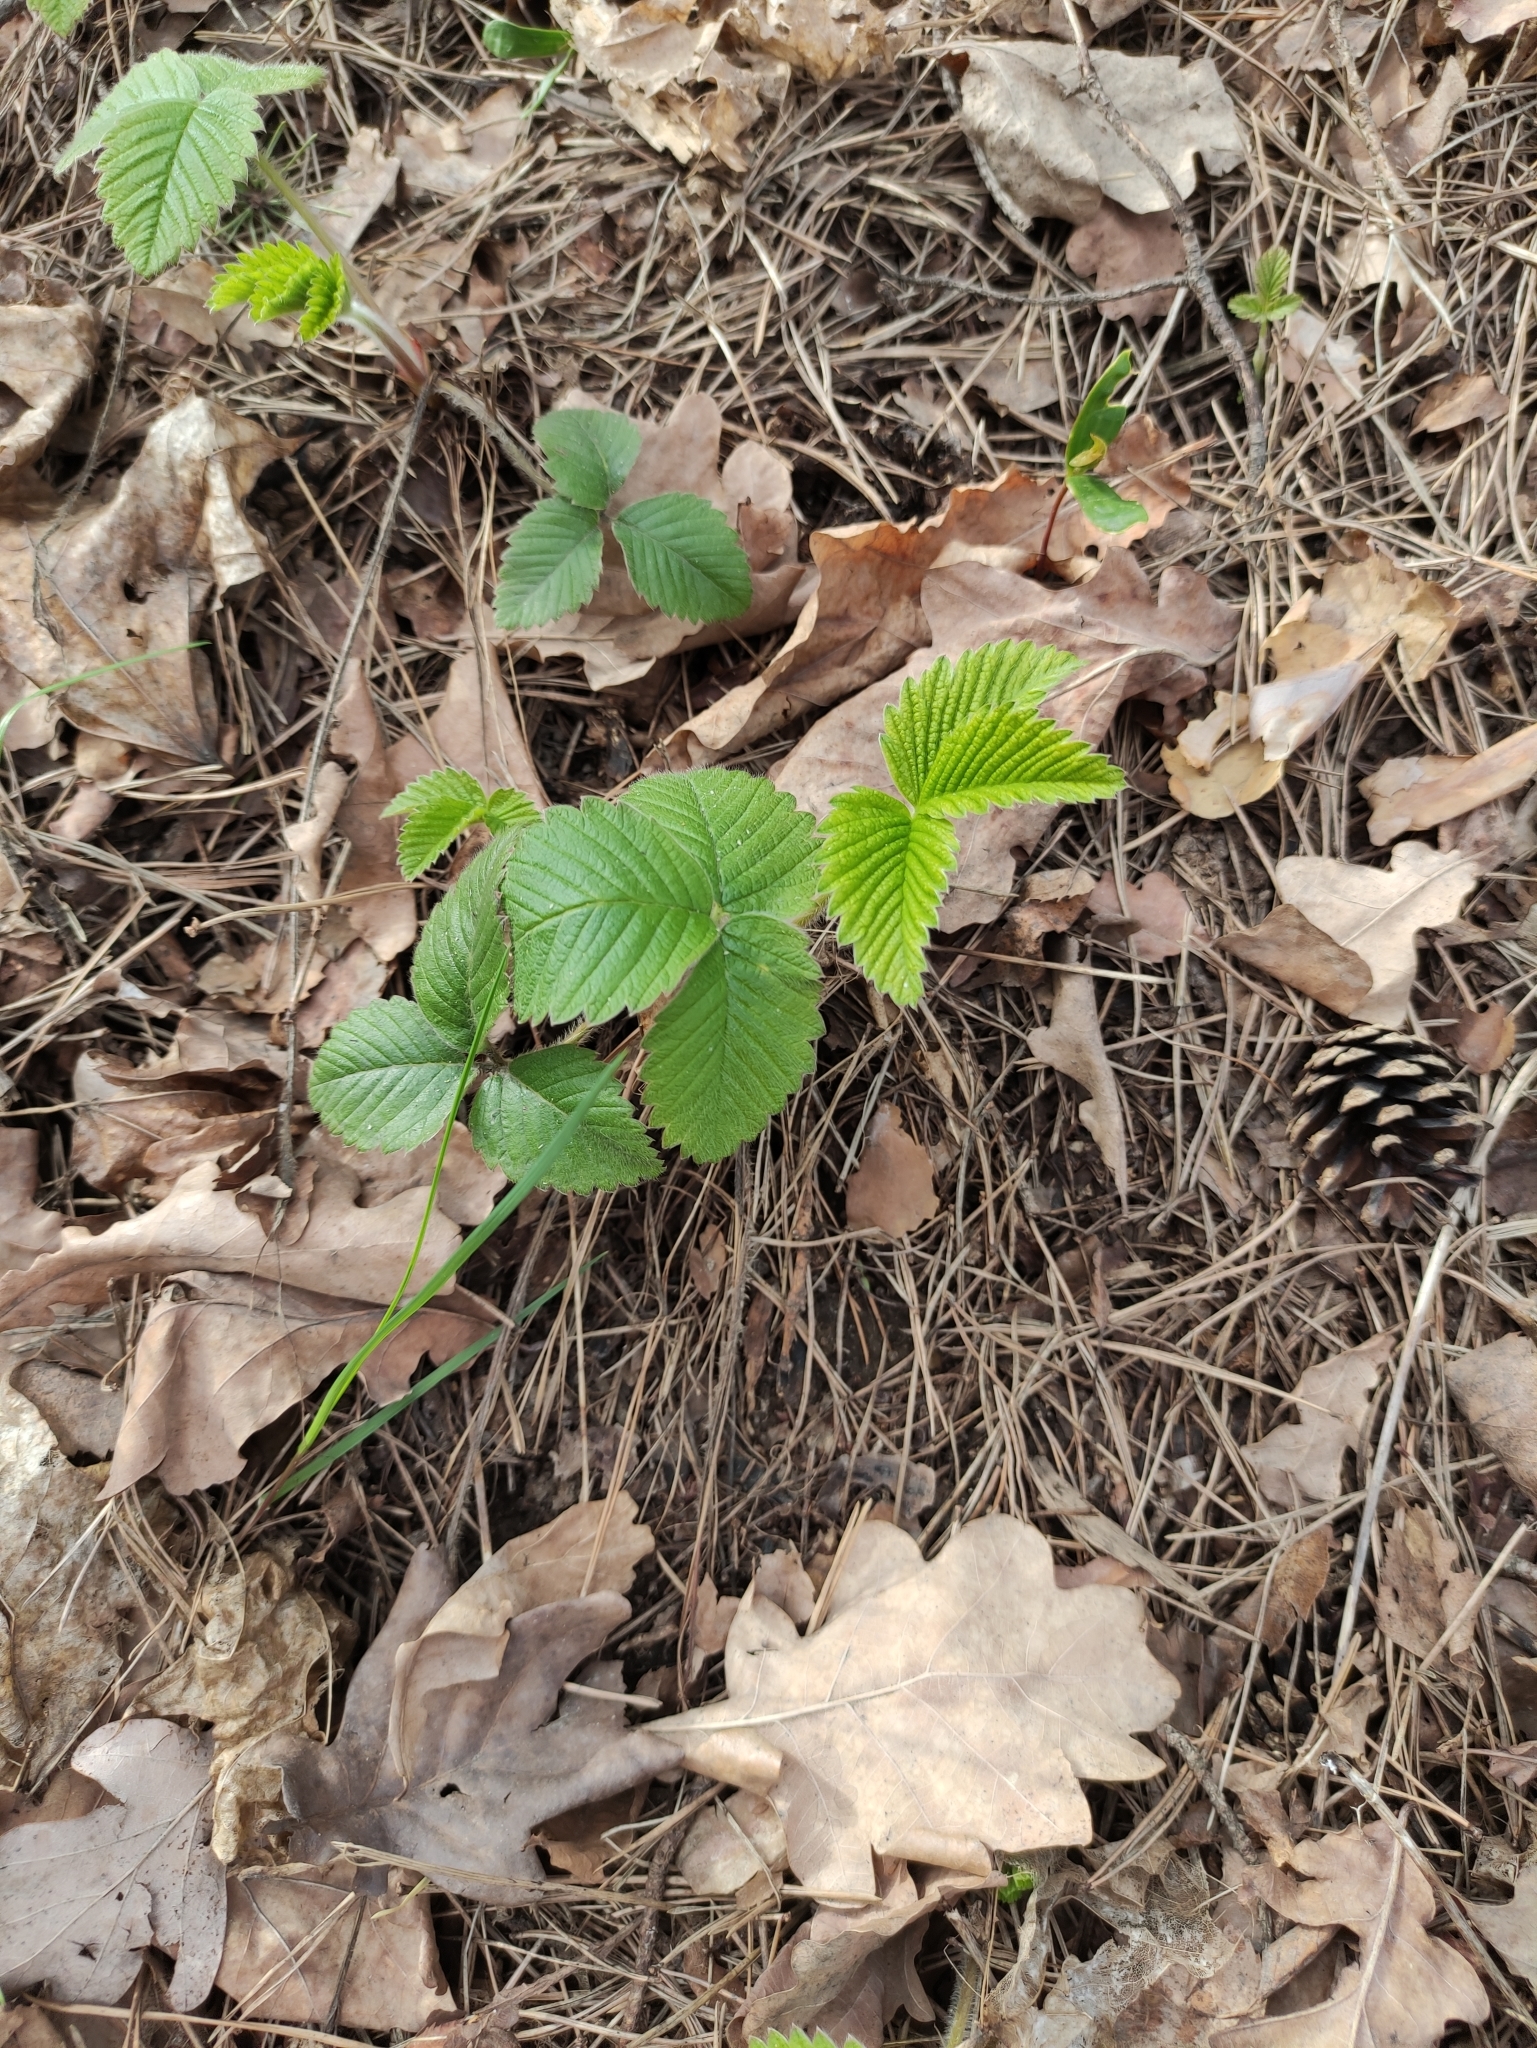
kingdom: Plantae
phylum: Tracheophyta
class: Magnoliopsida
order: Rosales
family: Rosaceae
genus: Fragaria
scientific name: Fragaria moschata
